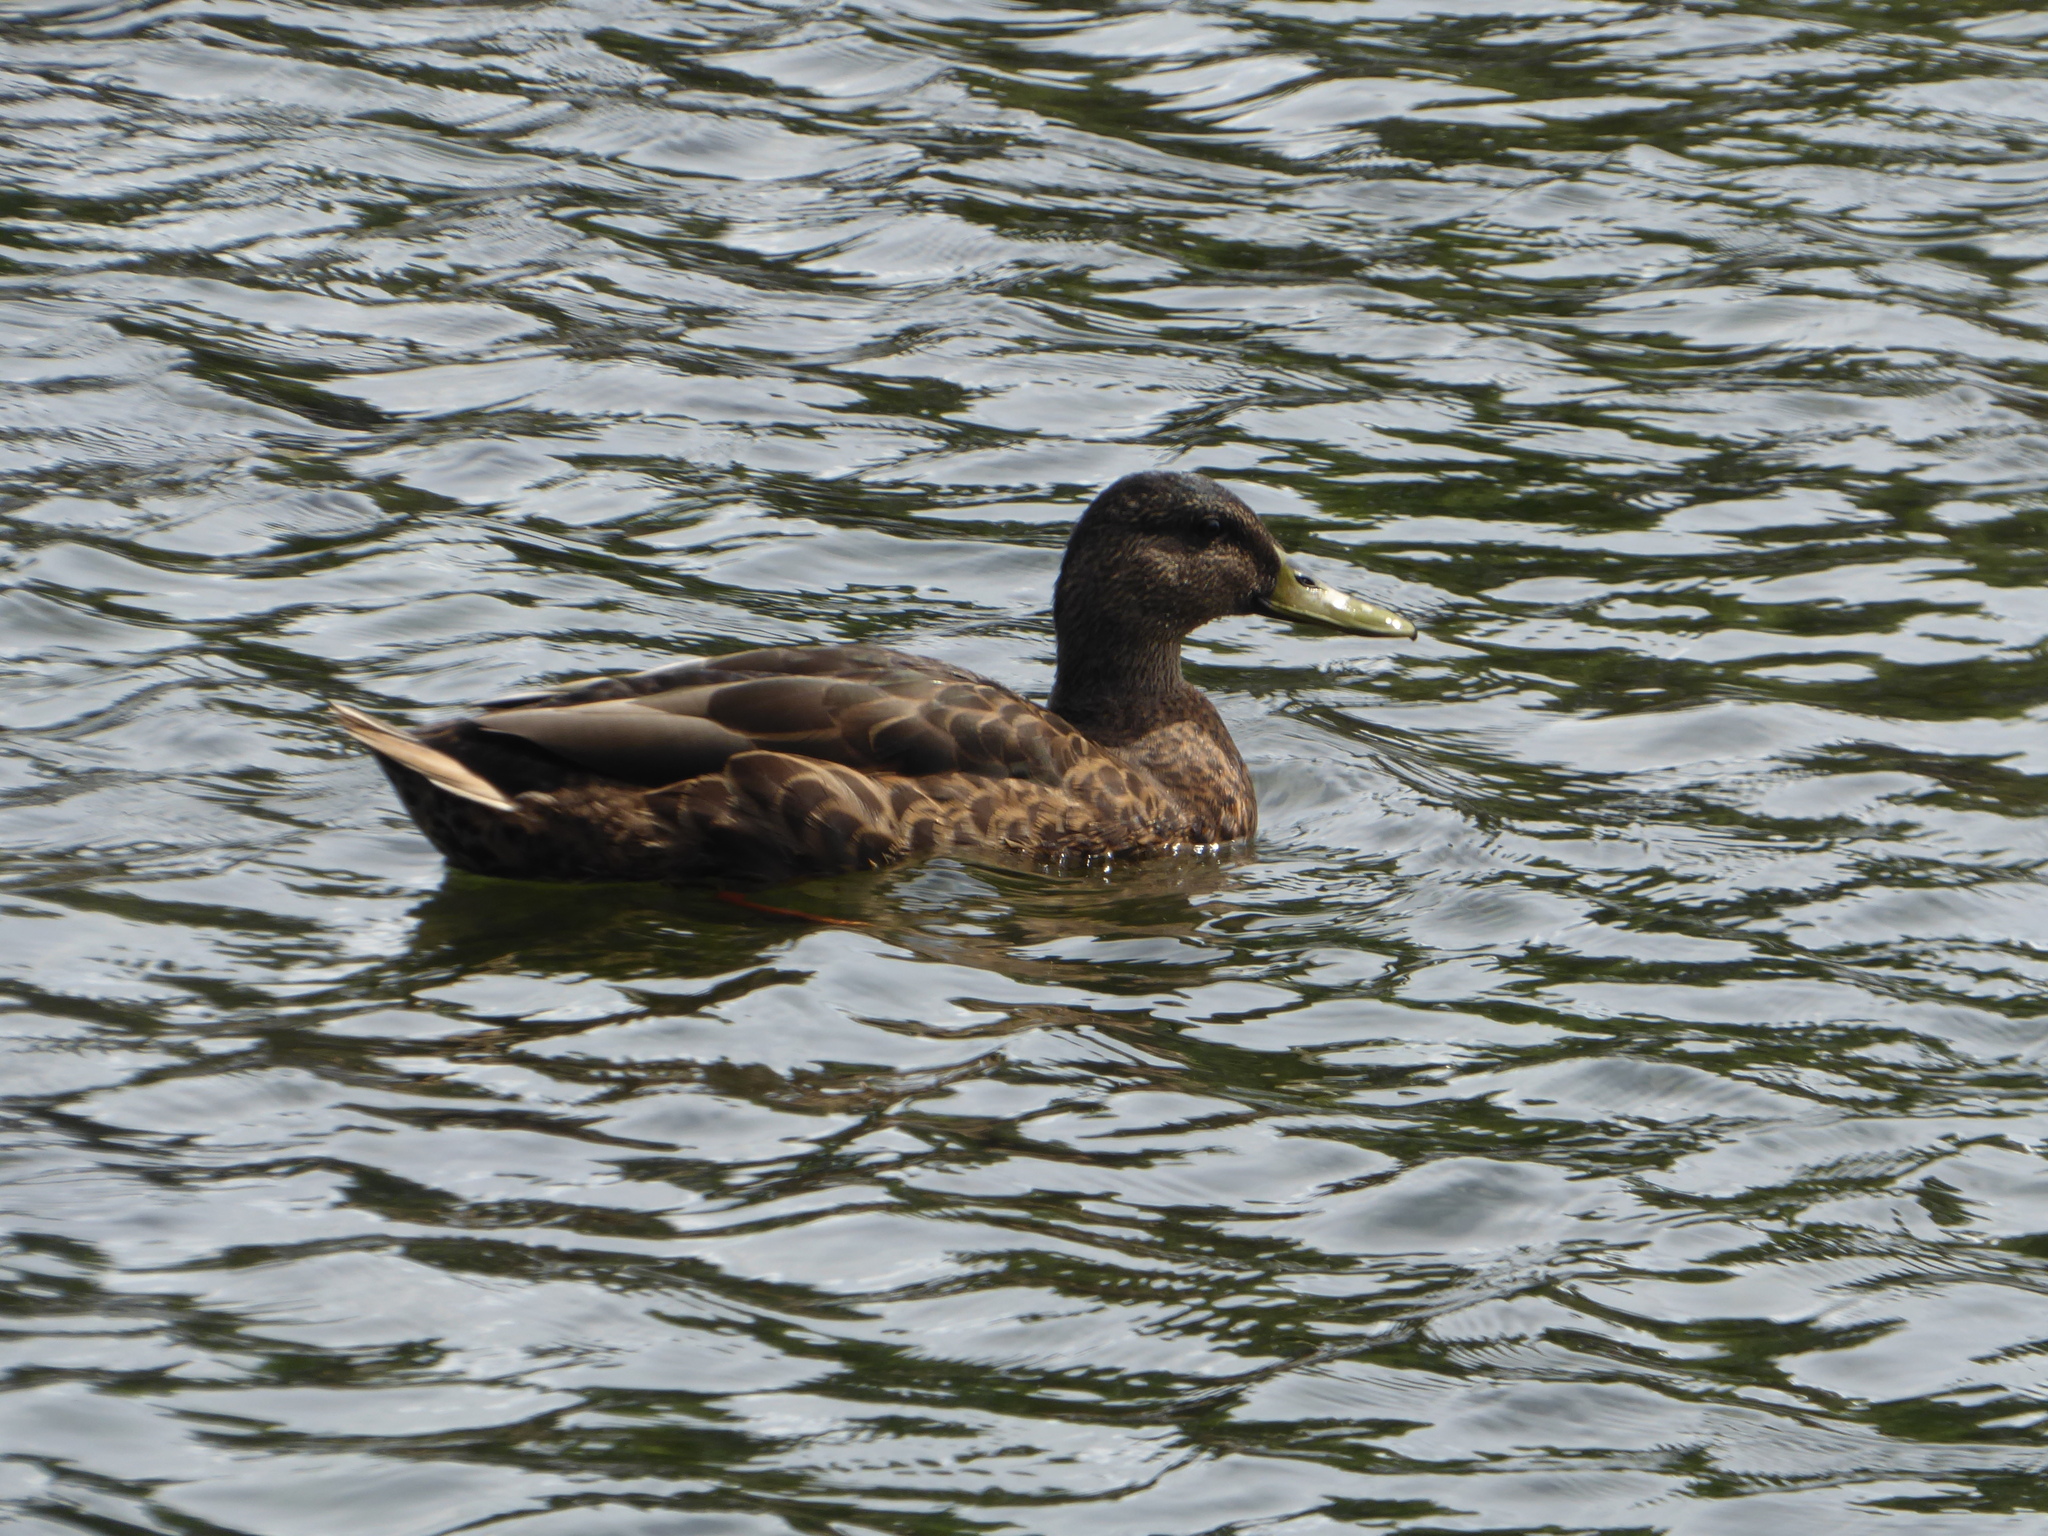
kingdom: Animalia
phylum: Chordata
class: Aves
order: Anseriformes
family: Anatidae
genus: Anas
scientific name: Anas platyrhynchos
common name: Mallard
